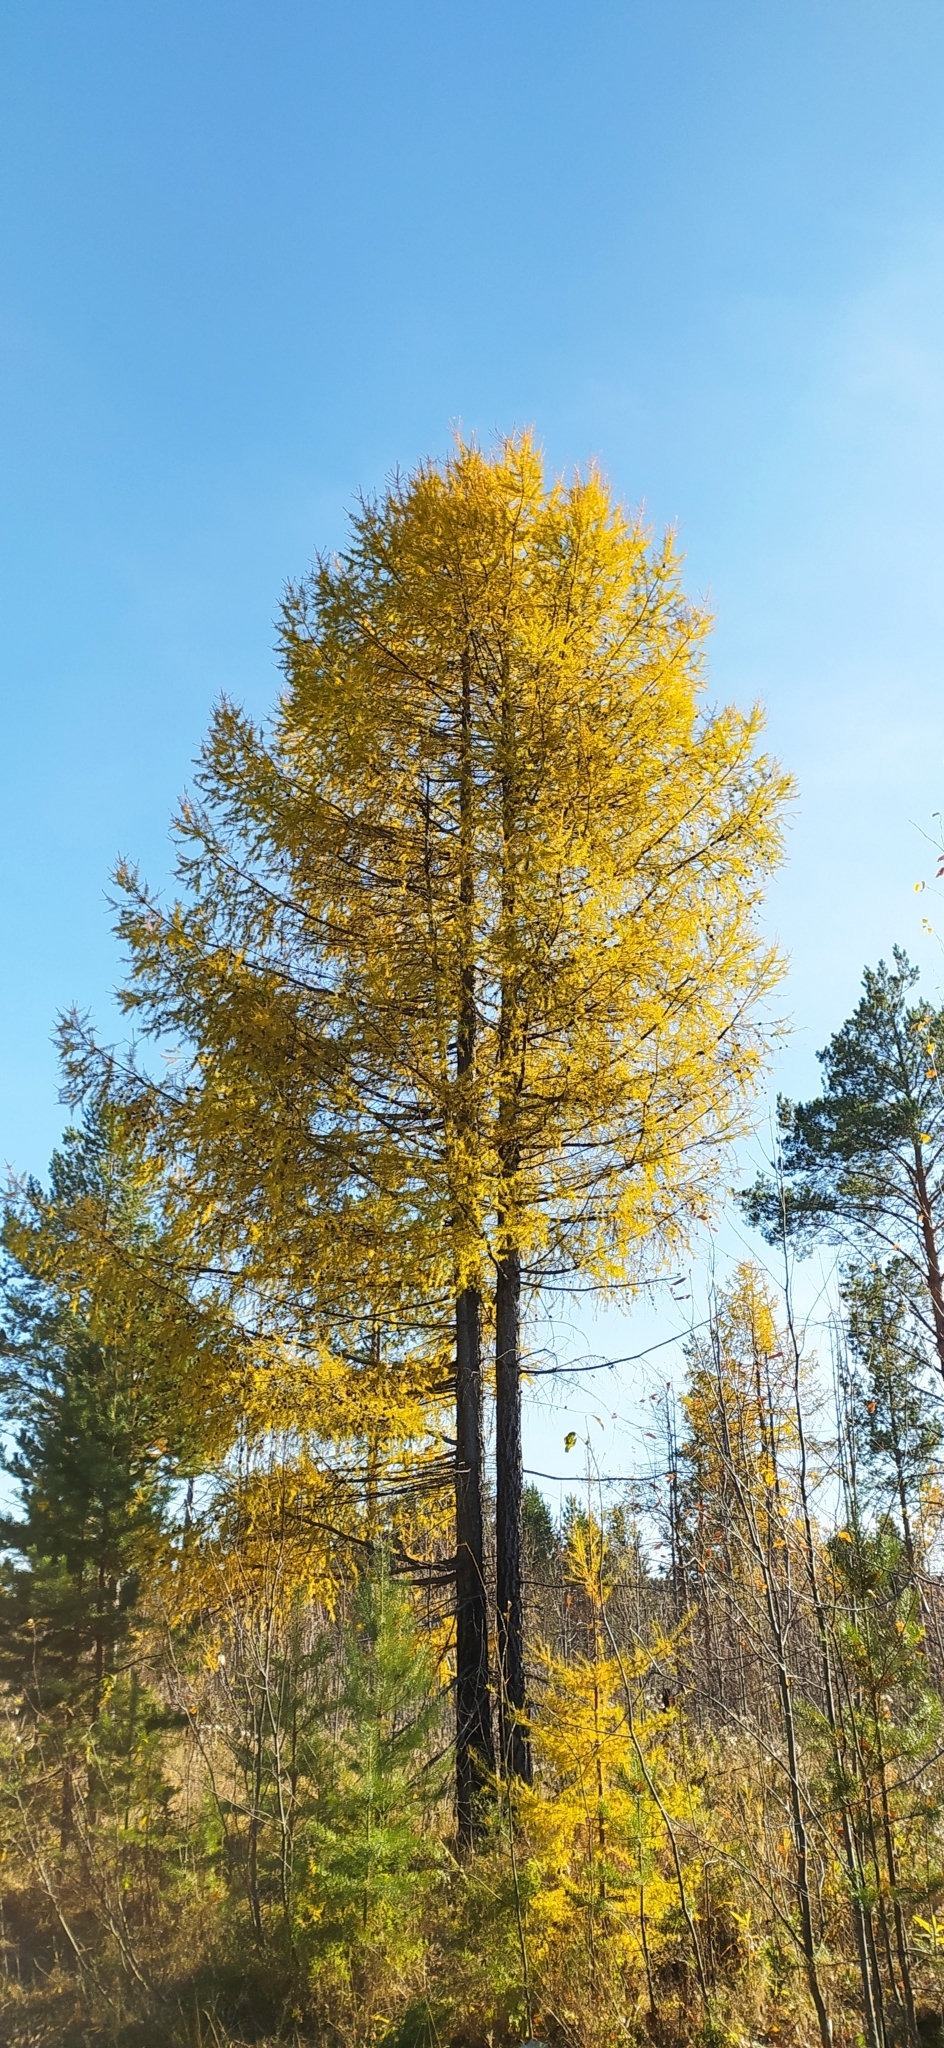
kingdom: Plantae
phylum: Tracheophyta
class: Pinopsida
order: Pinales
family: Pinaceae
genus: Larix
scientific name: Larix sibirica
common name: Siberian larch
